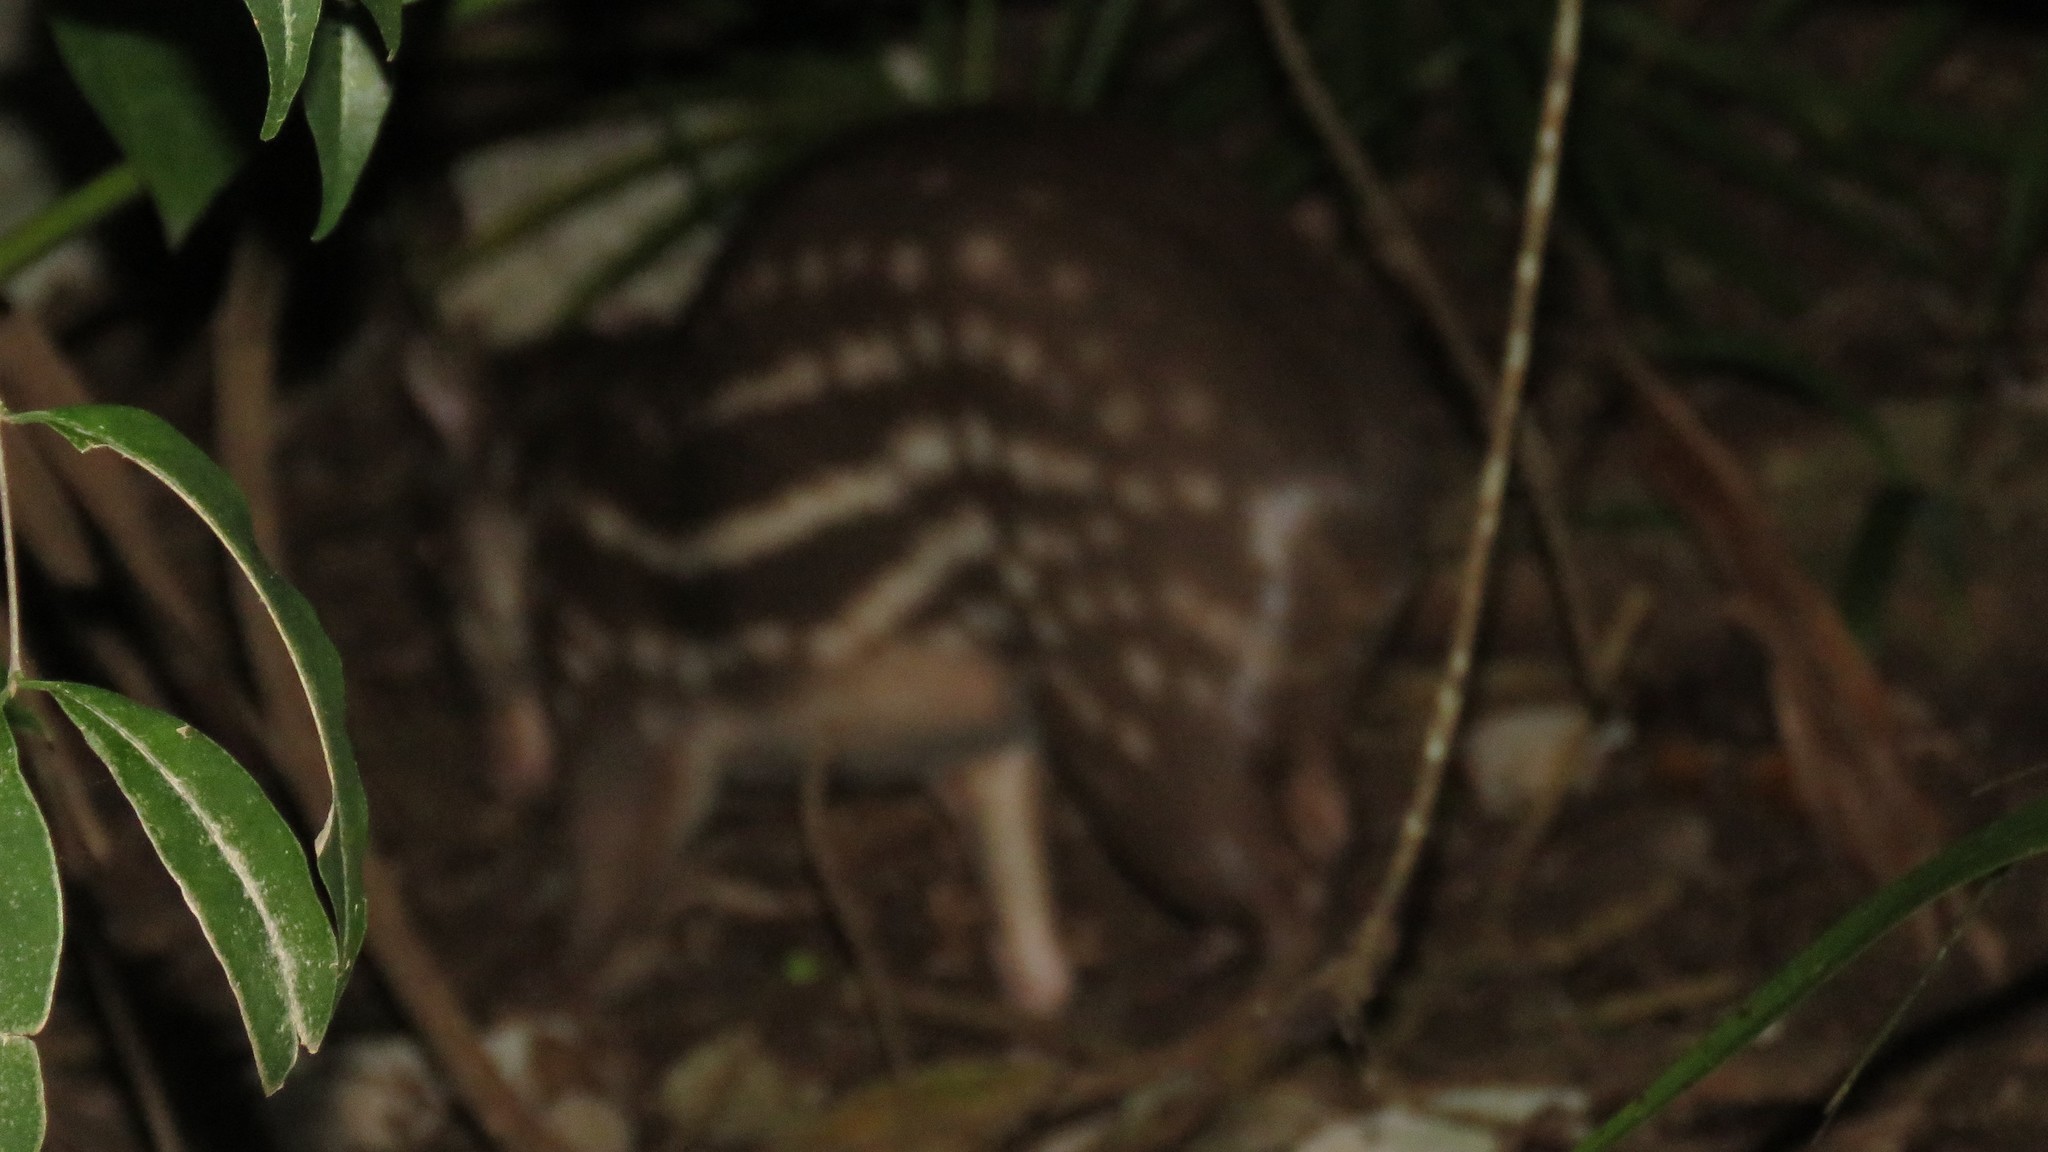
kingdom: Animalia
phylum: Chordata
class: Mammalia
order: Rodentia
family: Cuniculidae
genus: Cuniculus
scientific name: Cuniculus paca
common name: Lowland paca
